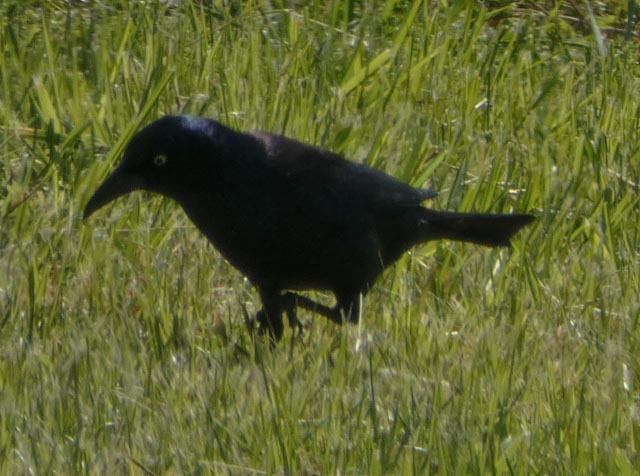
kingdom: Animalia
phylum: Chordata
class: Aves
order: Passeriformes
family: Icteridae
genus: Quiscalus
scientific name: Quiscalus quiscula
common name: Common grackle
